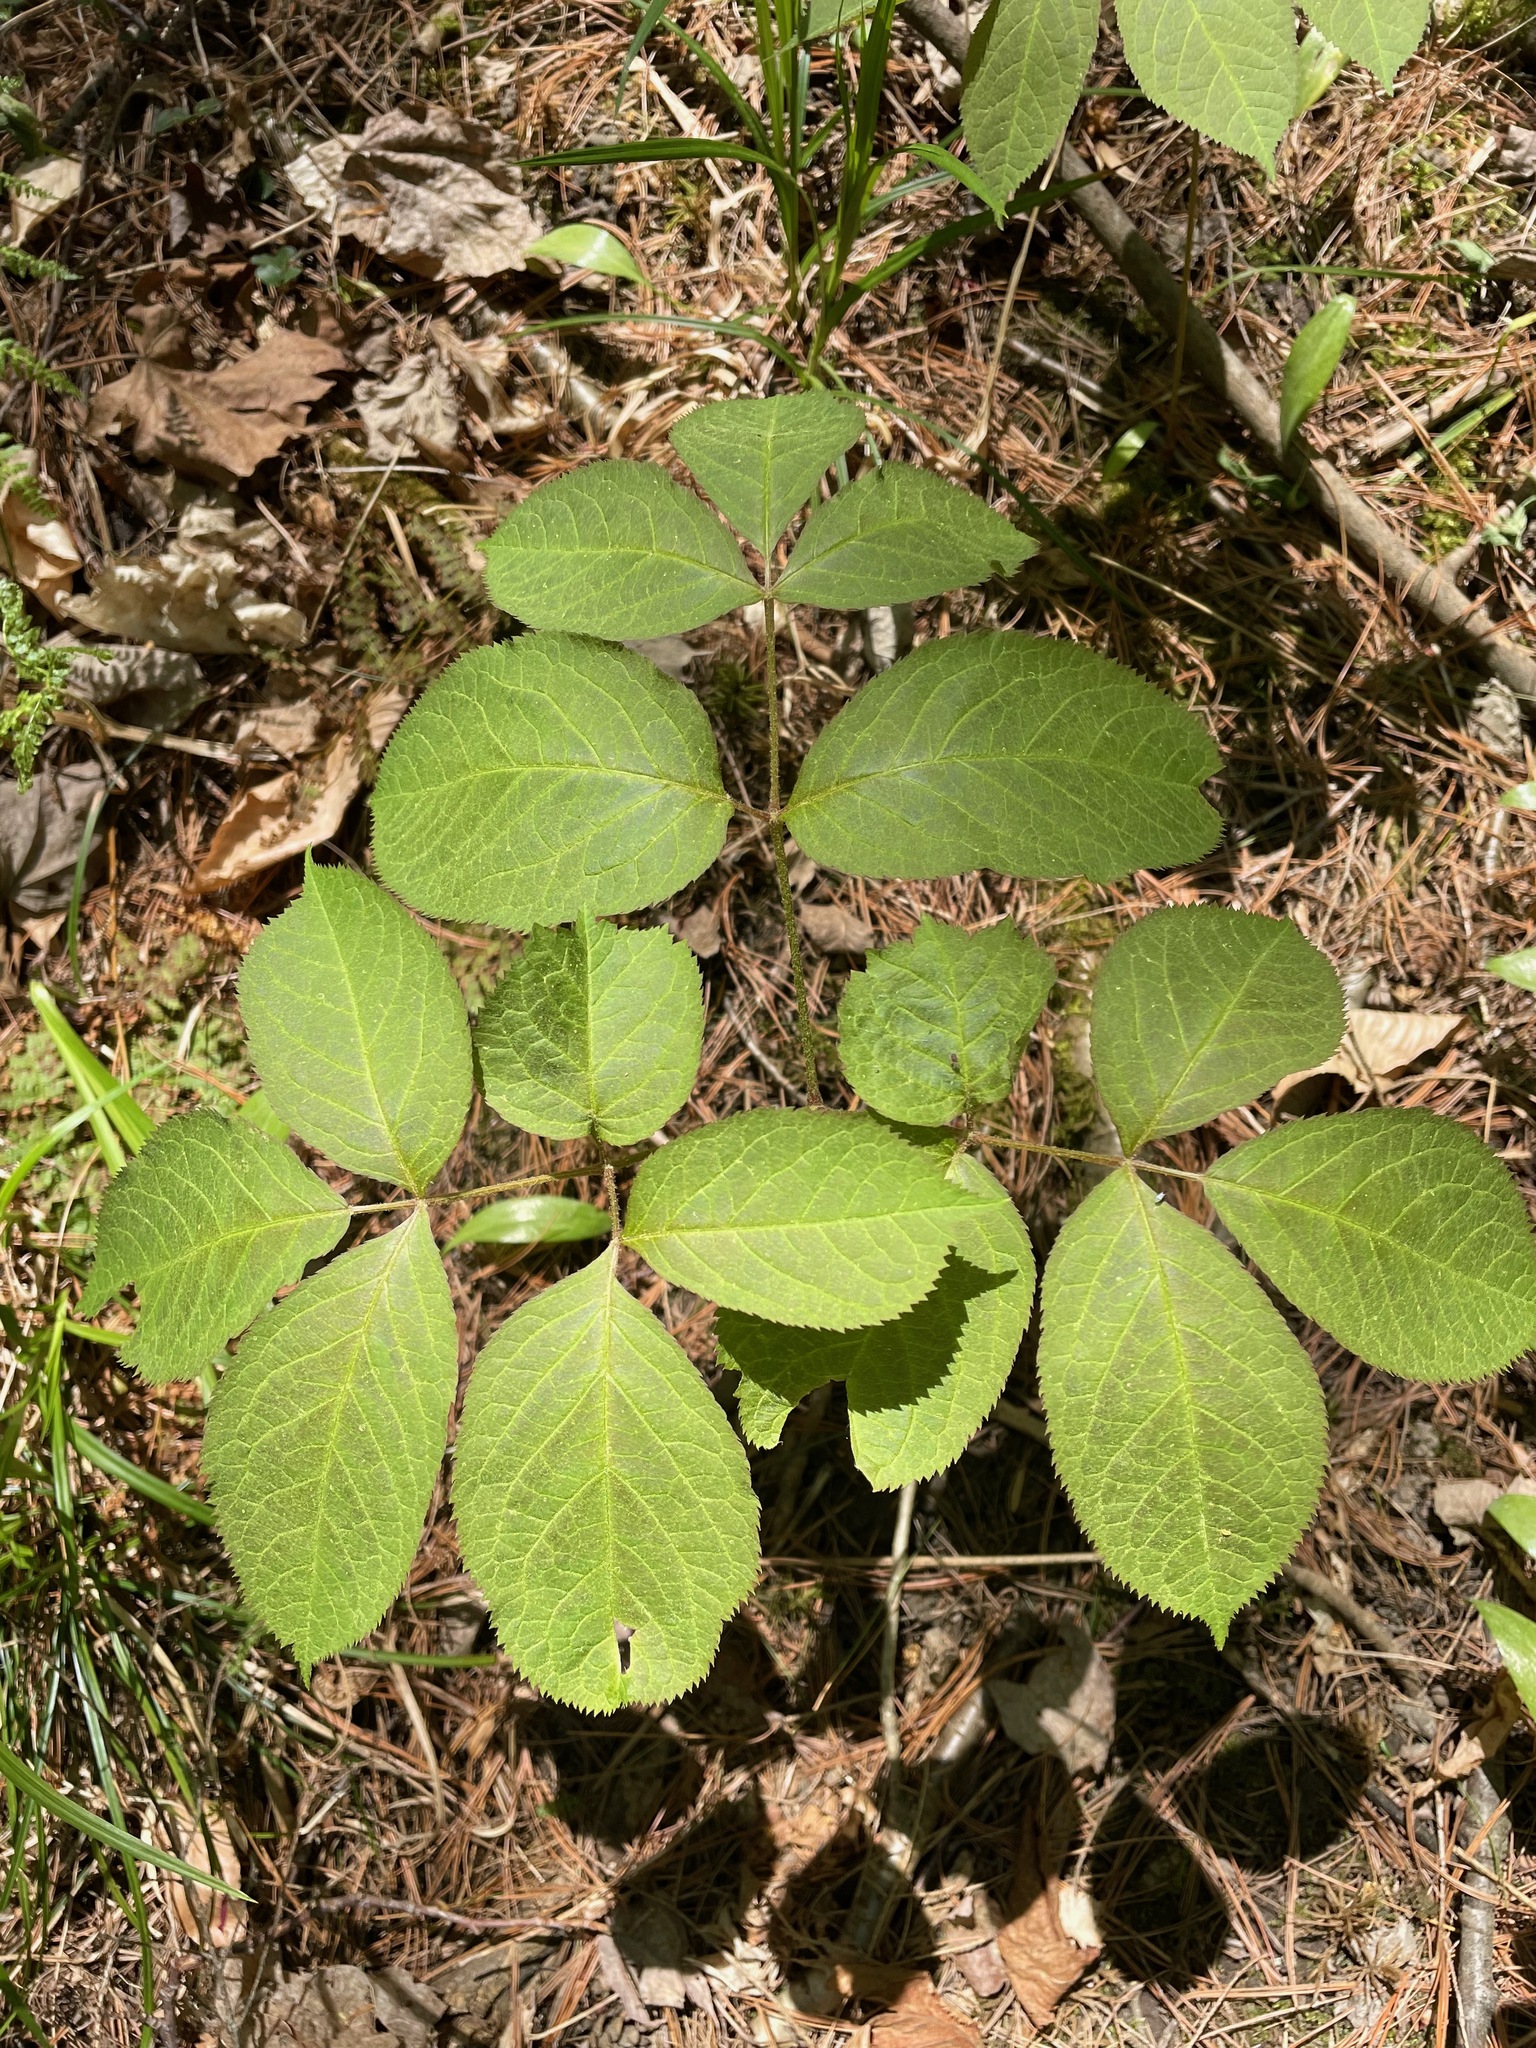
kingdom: Plantae
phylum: Tracheophyta
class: Magnoliopsida
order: Apiales
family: Araliaceae
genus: Aralia
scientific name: Aralia nudicaulis
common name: Wild sarsaparilla
